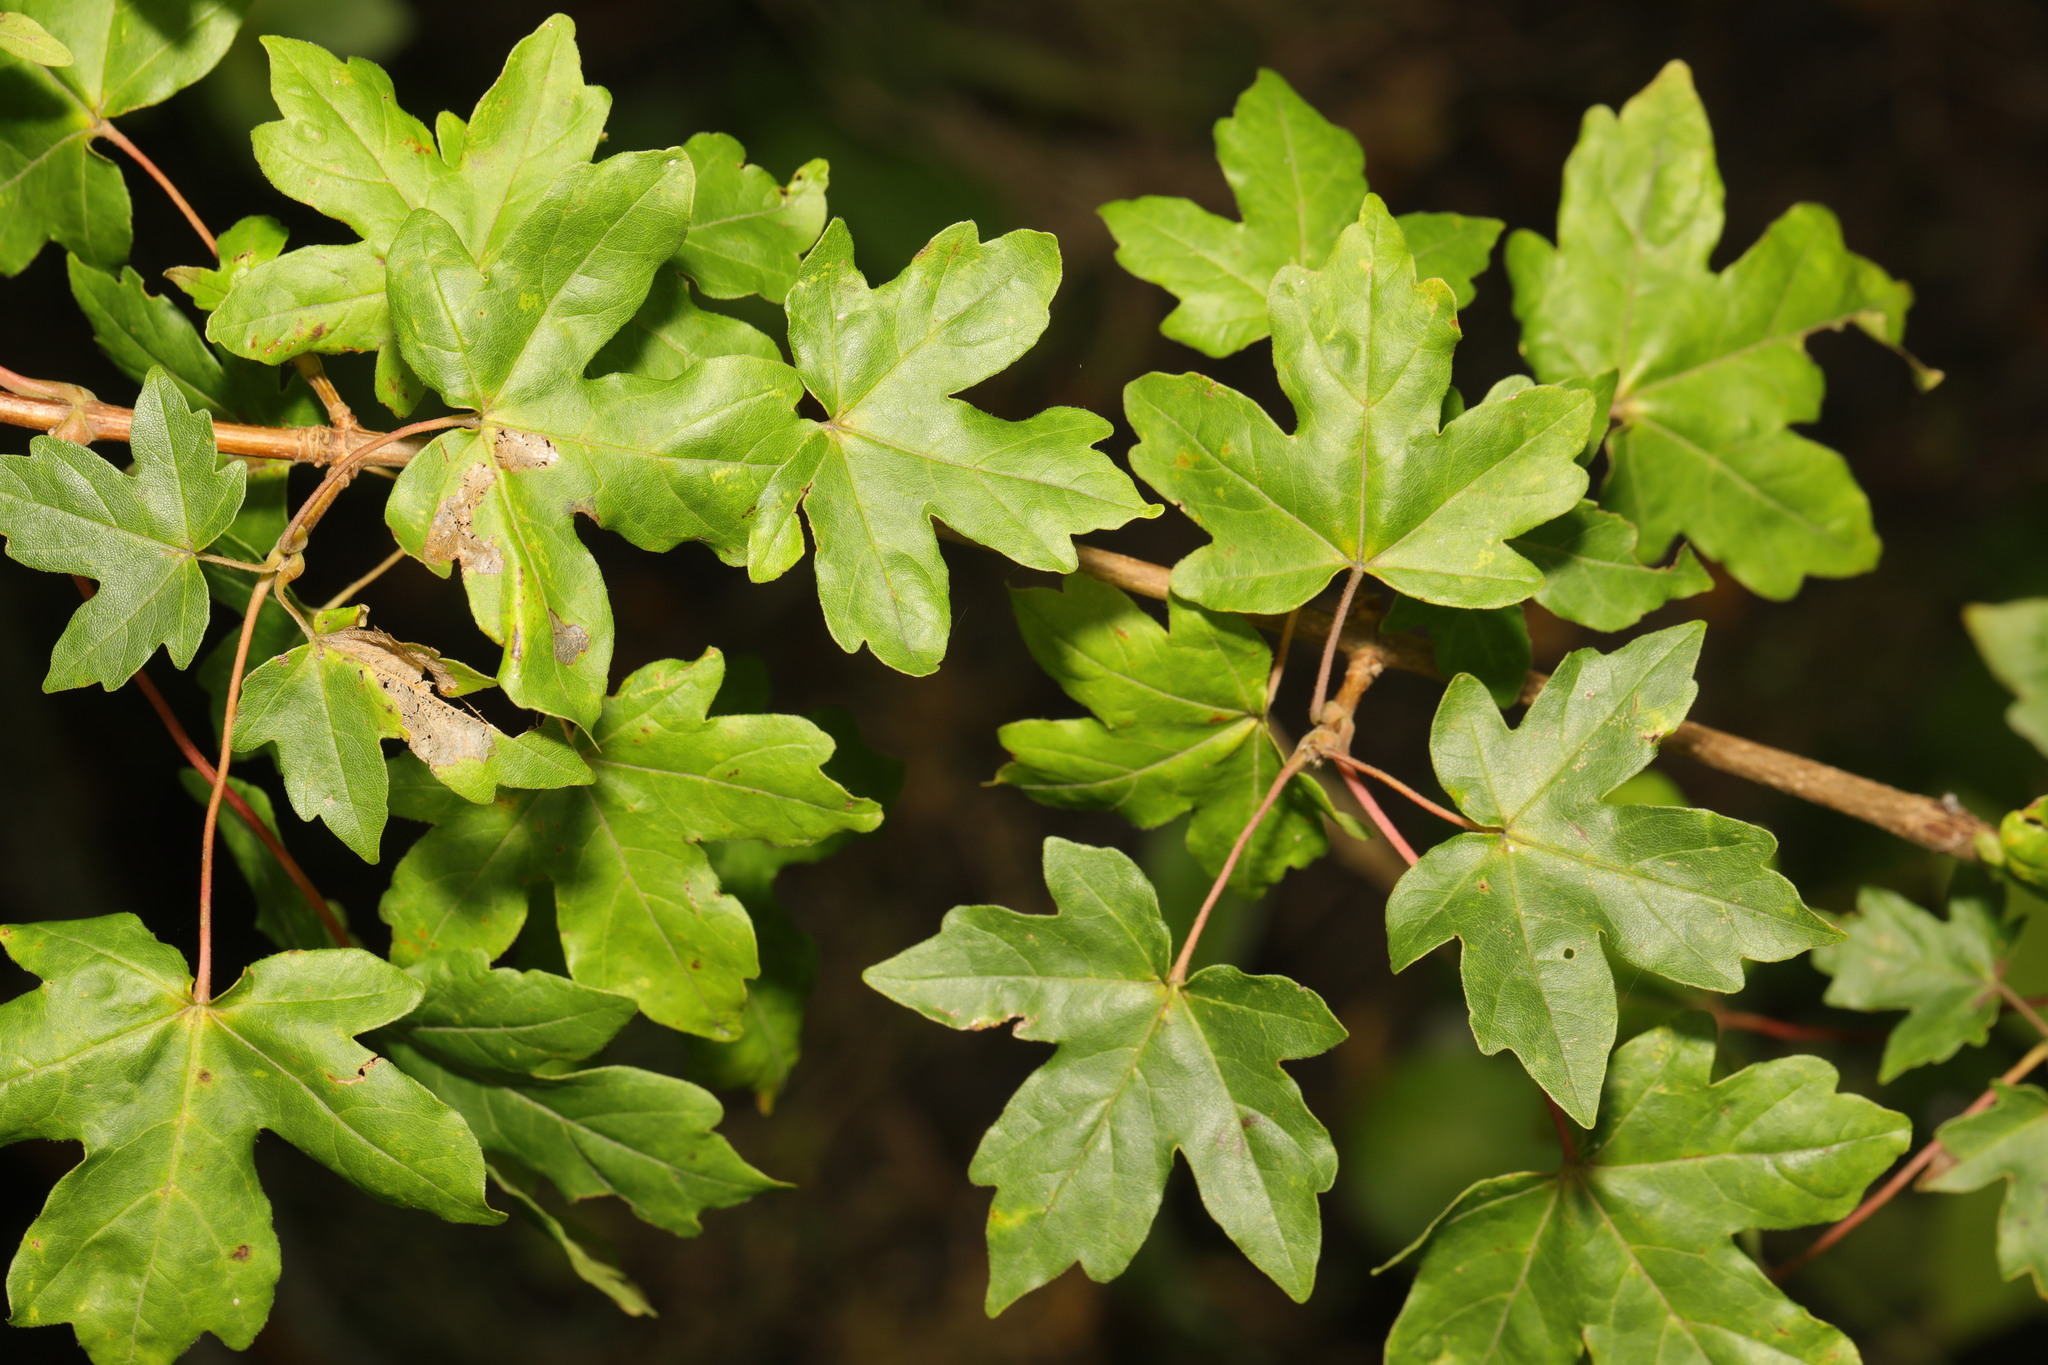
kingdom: Plantae
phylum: Tracheophyta
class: Magnoliopsida
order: Sapindales
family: Sapindaceae
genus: Acer
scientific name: Acer campestre
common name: Field maple
